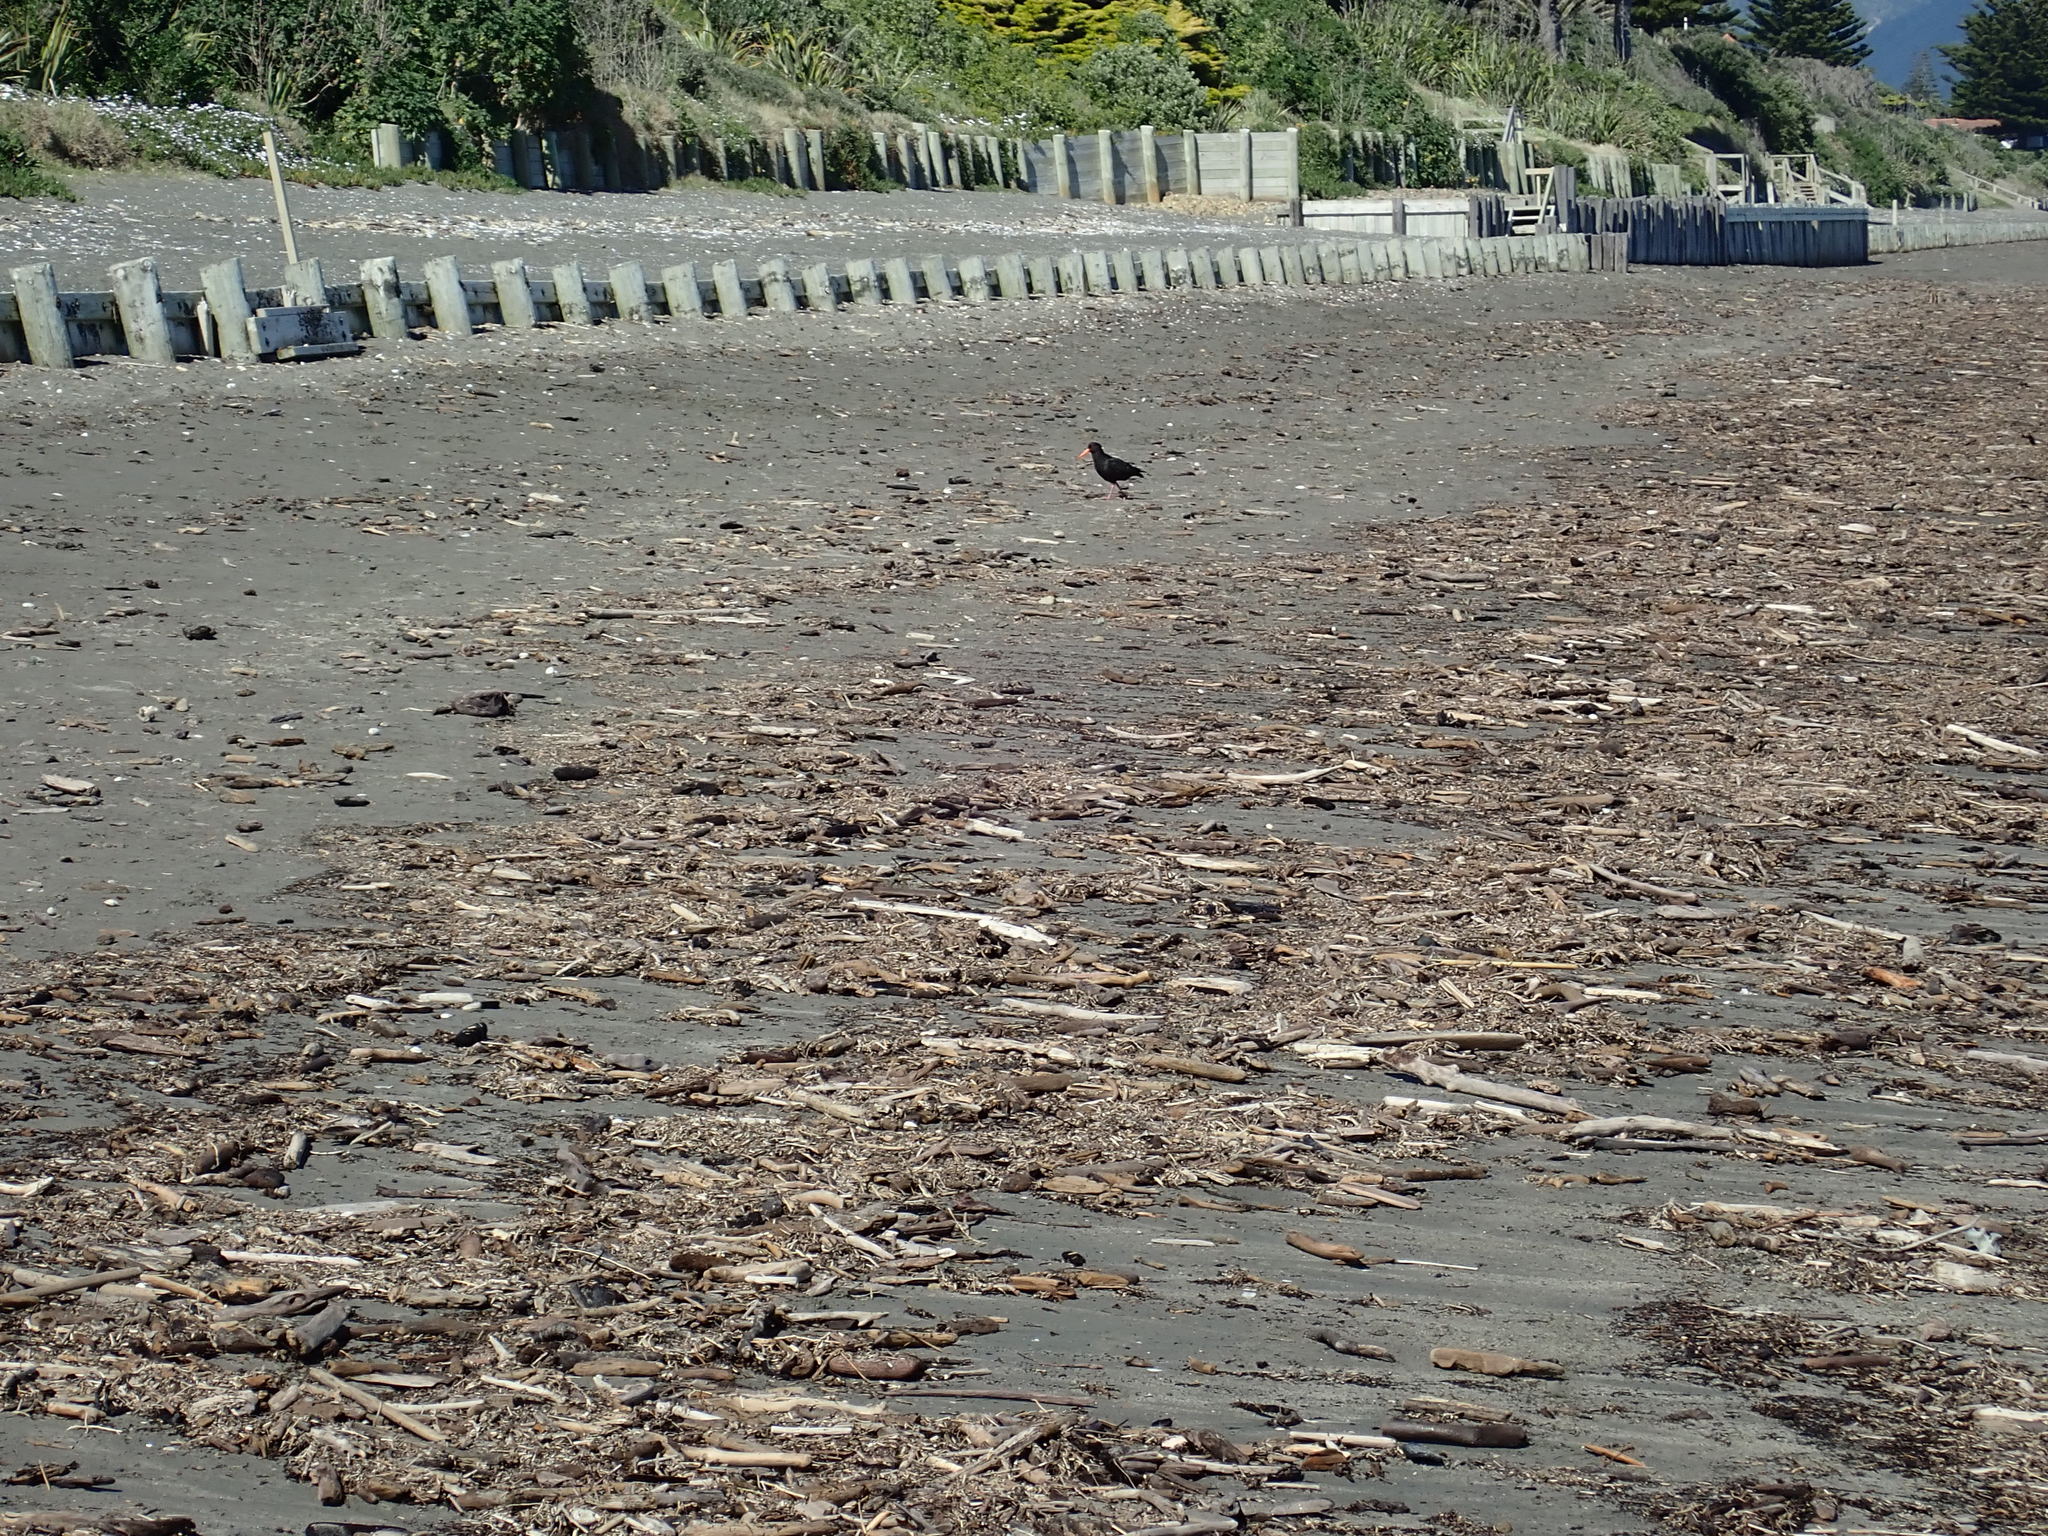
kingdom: Animalia
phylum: Chordata
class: Aves
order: Charadriiformes
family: Haematopodidae
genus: Haematopus
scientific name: Haematopus unicolor
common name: Variable oystercatcher
